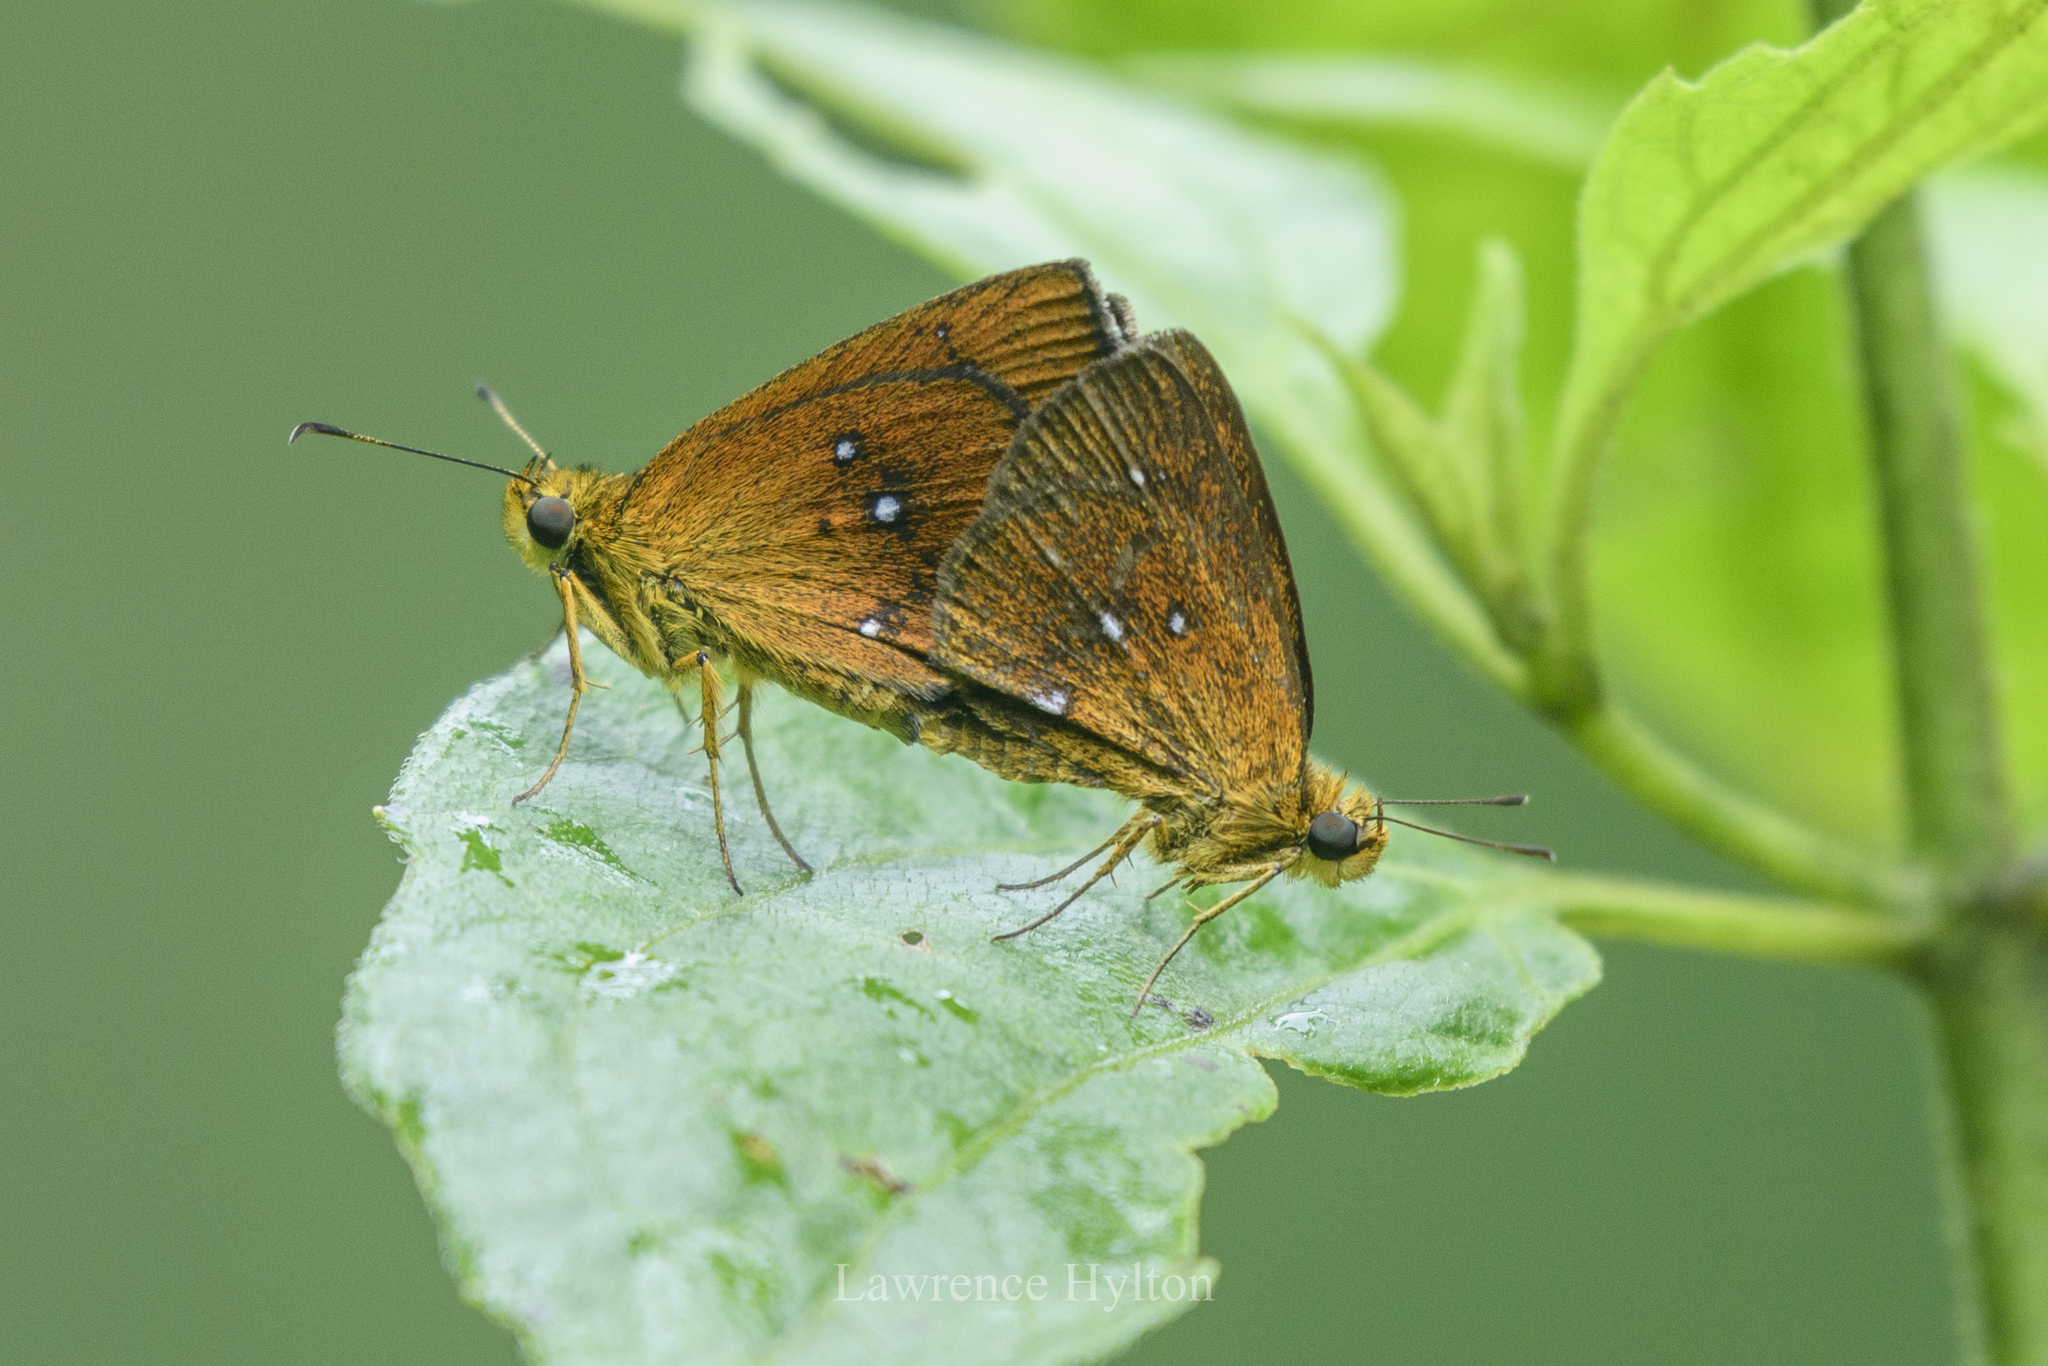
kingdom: Animalia
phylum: Arthropoda
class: Insecta
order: Lepidoptera
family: Hesperiidae
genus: Iambrix
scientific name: Iambrix salsala
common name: Chestnut bob
